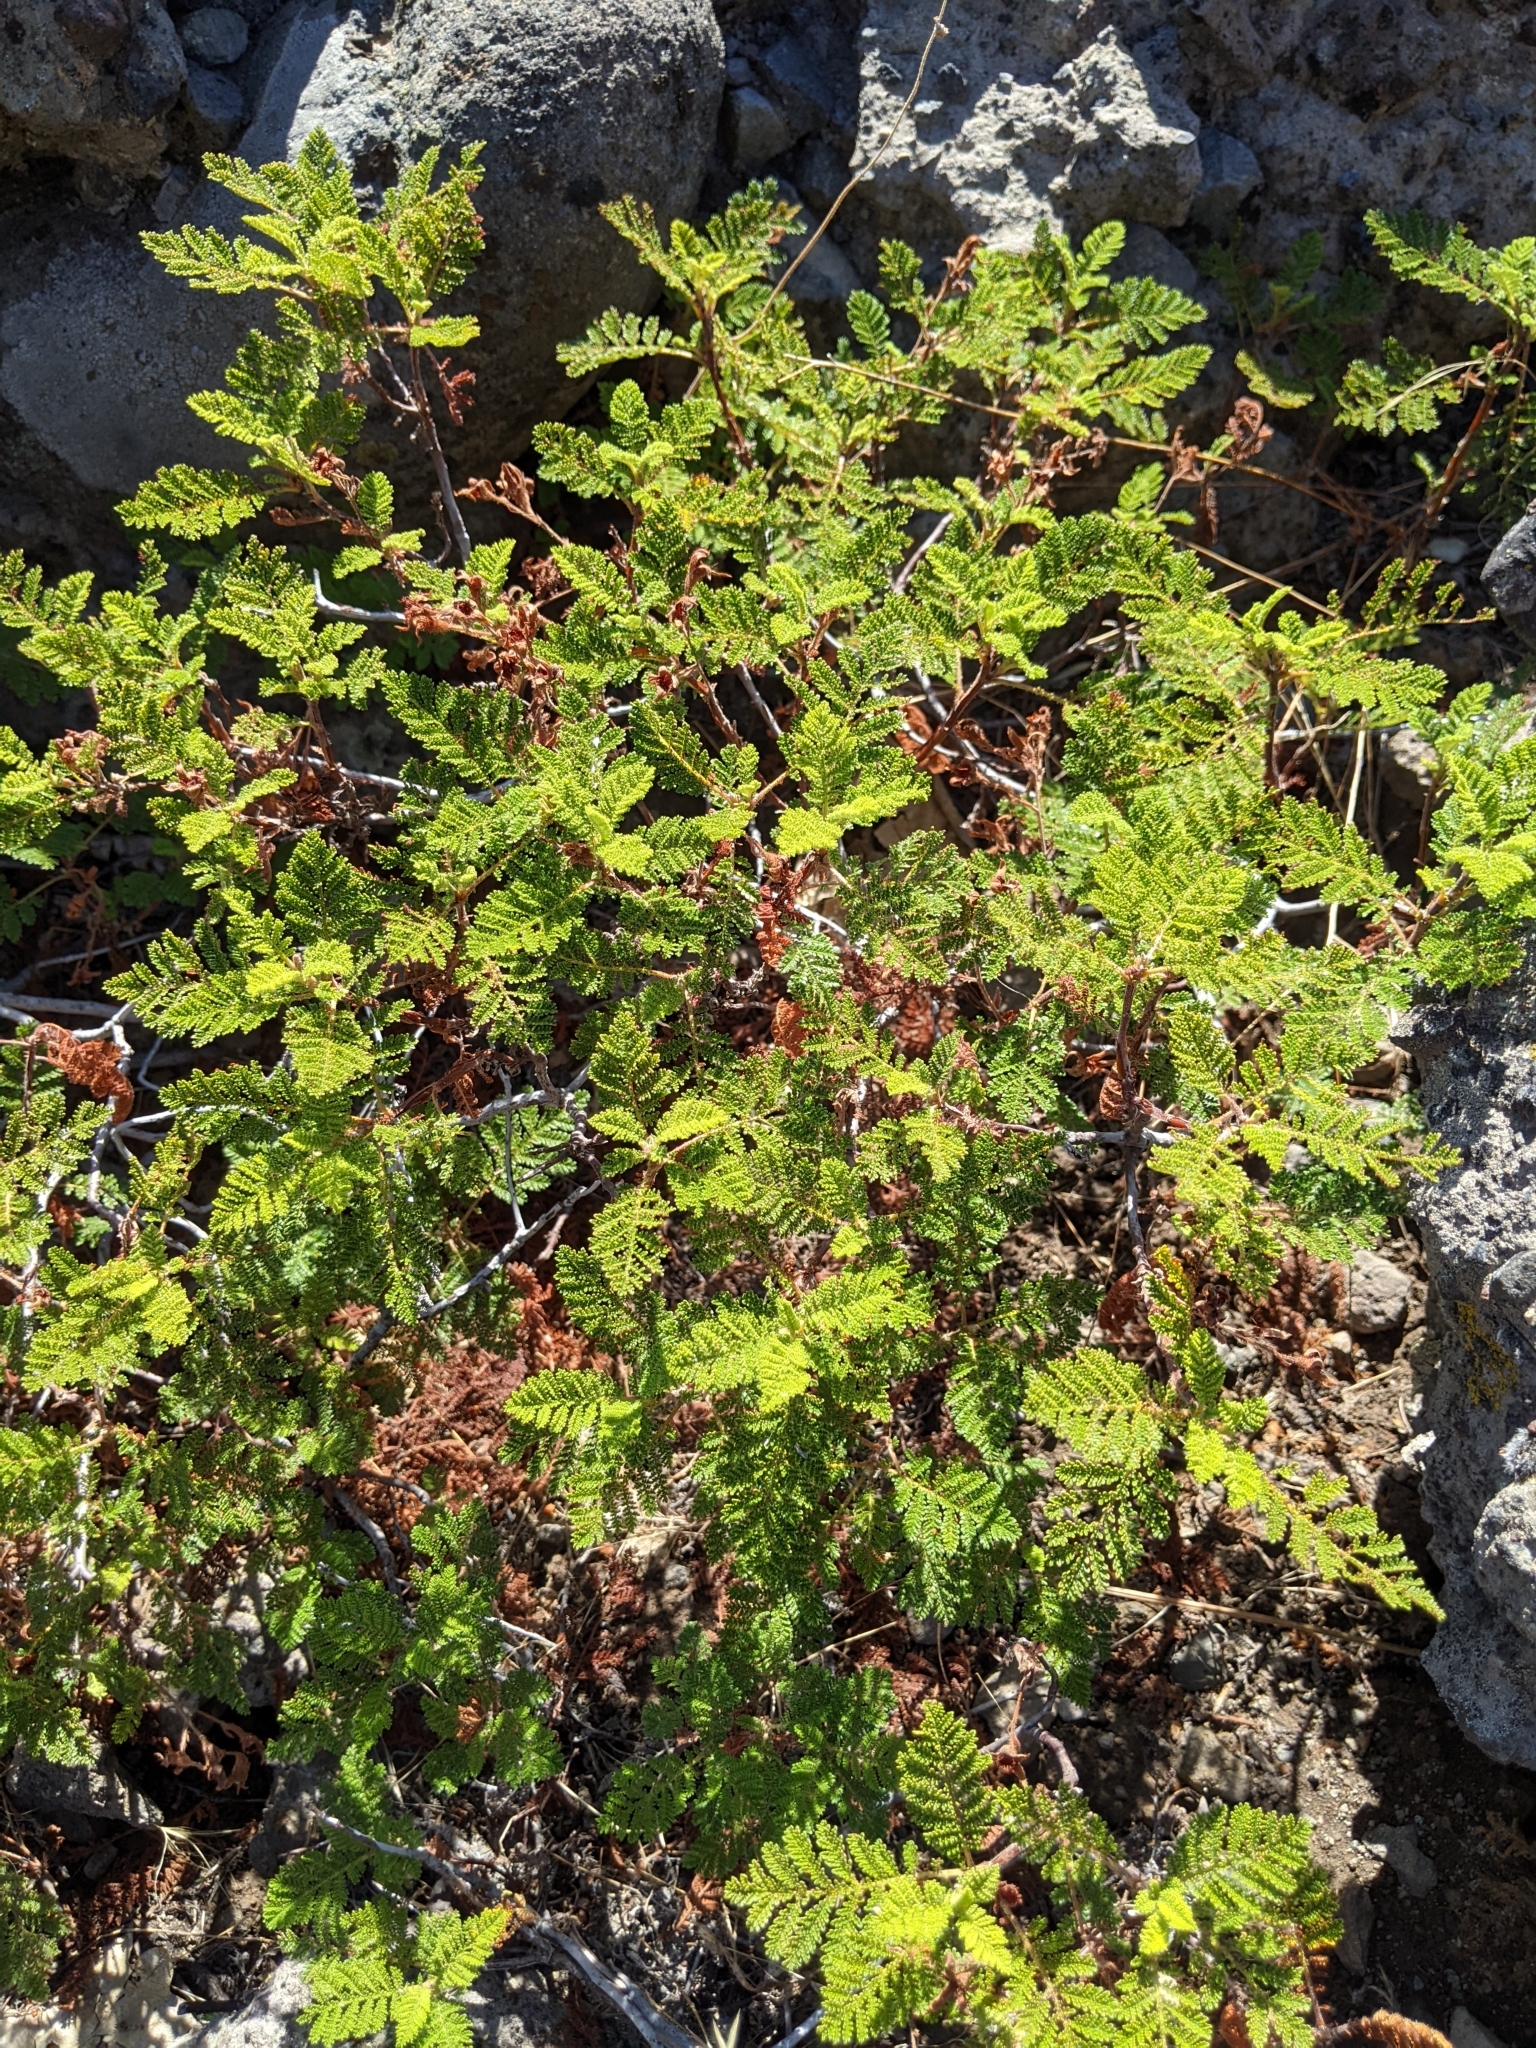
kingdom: Plantae
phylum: Tracheophyta
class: Magnoliopsida
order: Rosales
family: Rosaceae
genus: Chamaebatia
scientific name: Chamaebatia foliolosa
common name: Mountain misery
